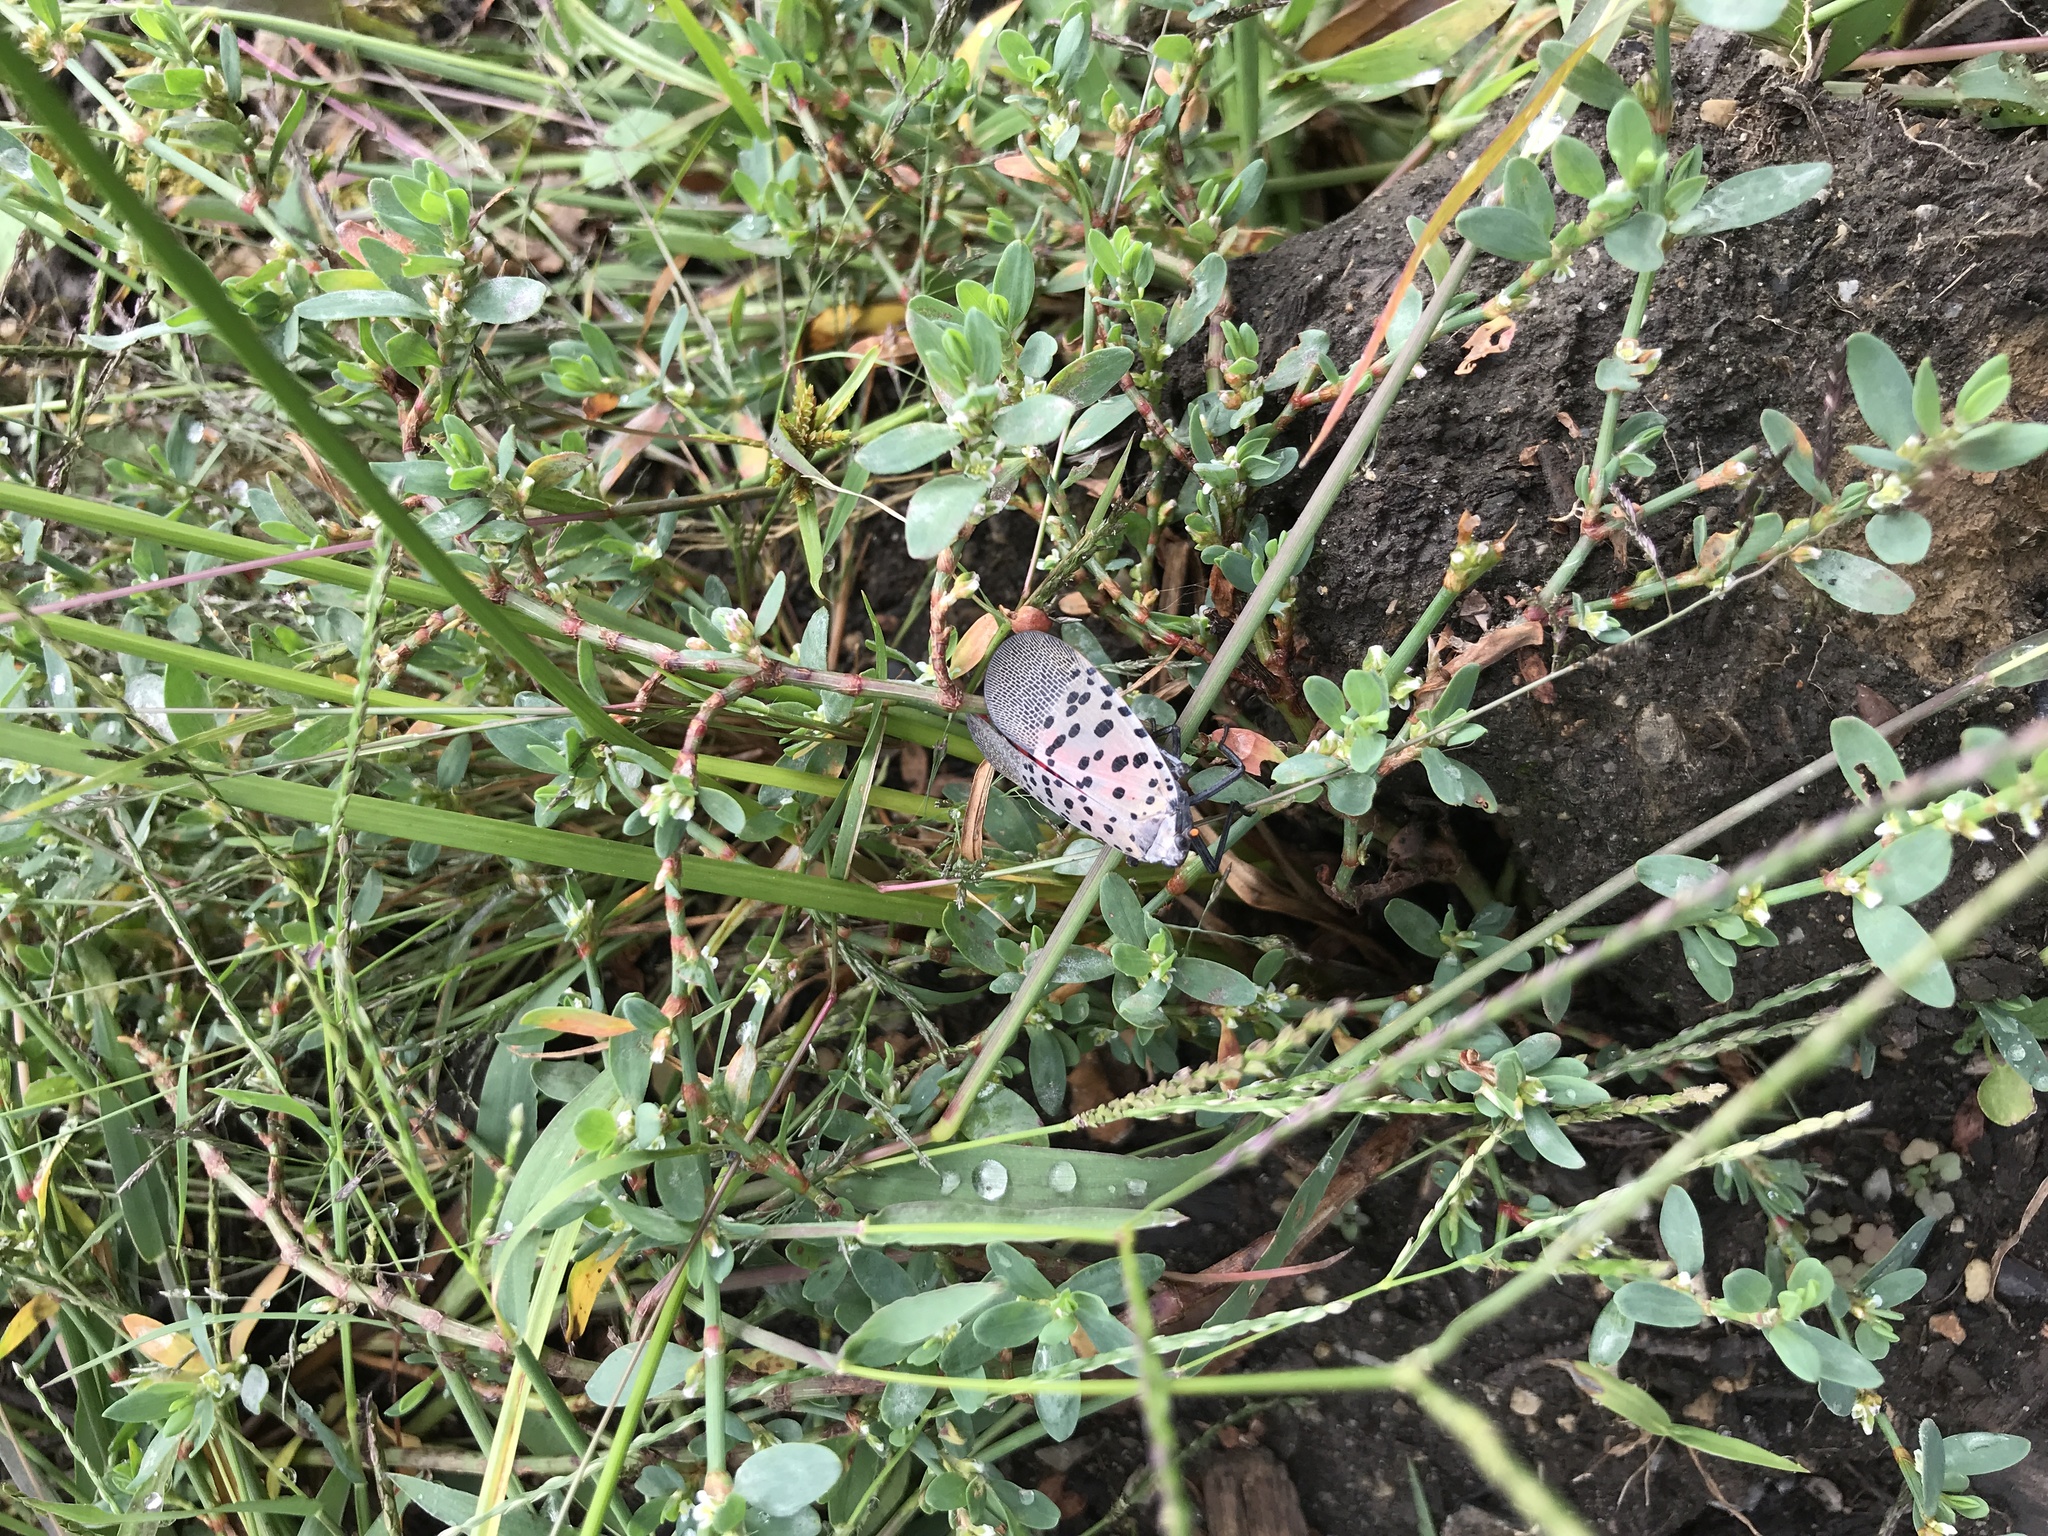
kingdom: Animalia
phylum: Arthropoda
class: Insecta
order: Hemiptera
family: Fulgoridae
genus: Lycorma
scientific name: Lycorma delicatula
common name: Spotted lanternfly
